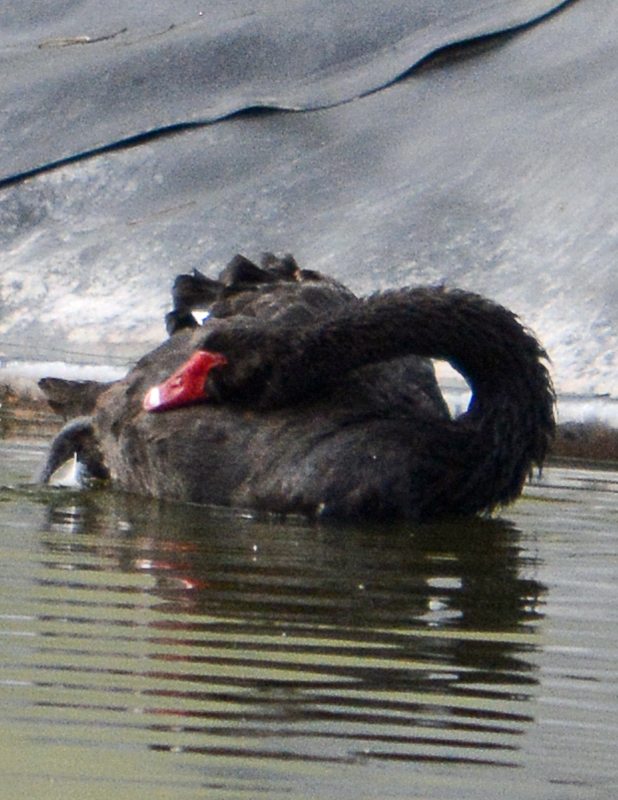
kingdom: Animalia
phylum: Chordata
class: Aves
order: Anseriformes
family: Anatidae
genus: Cygnus
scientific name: Cygnus atratus
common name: Black swan
